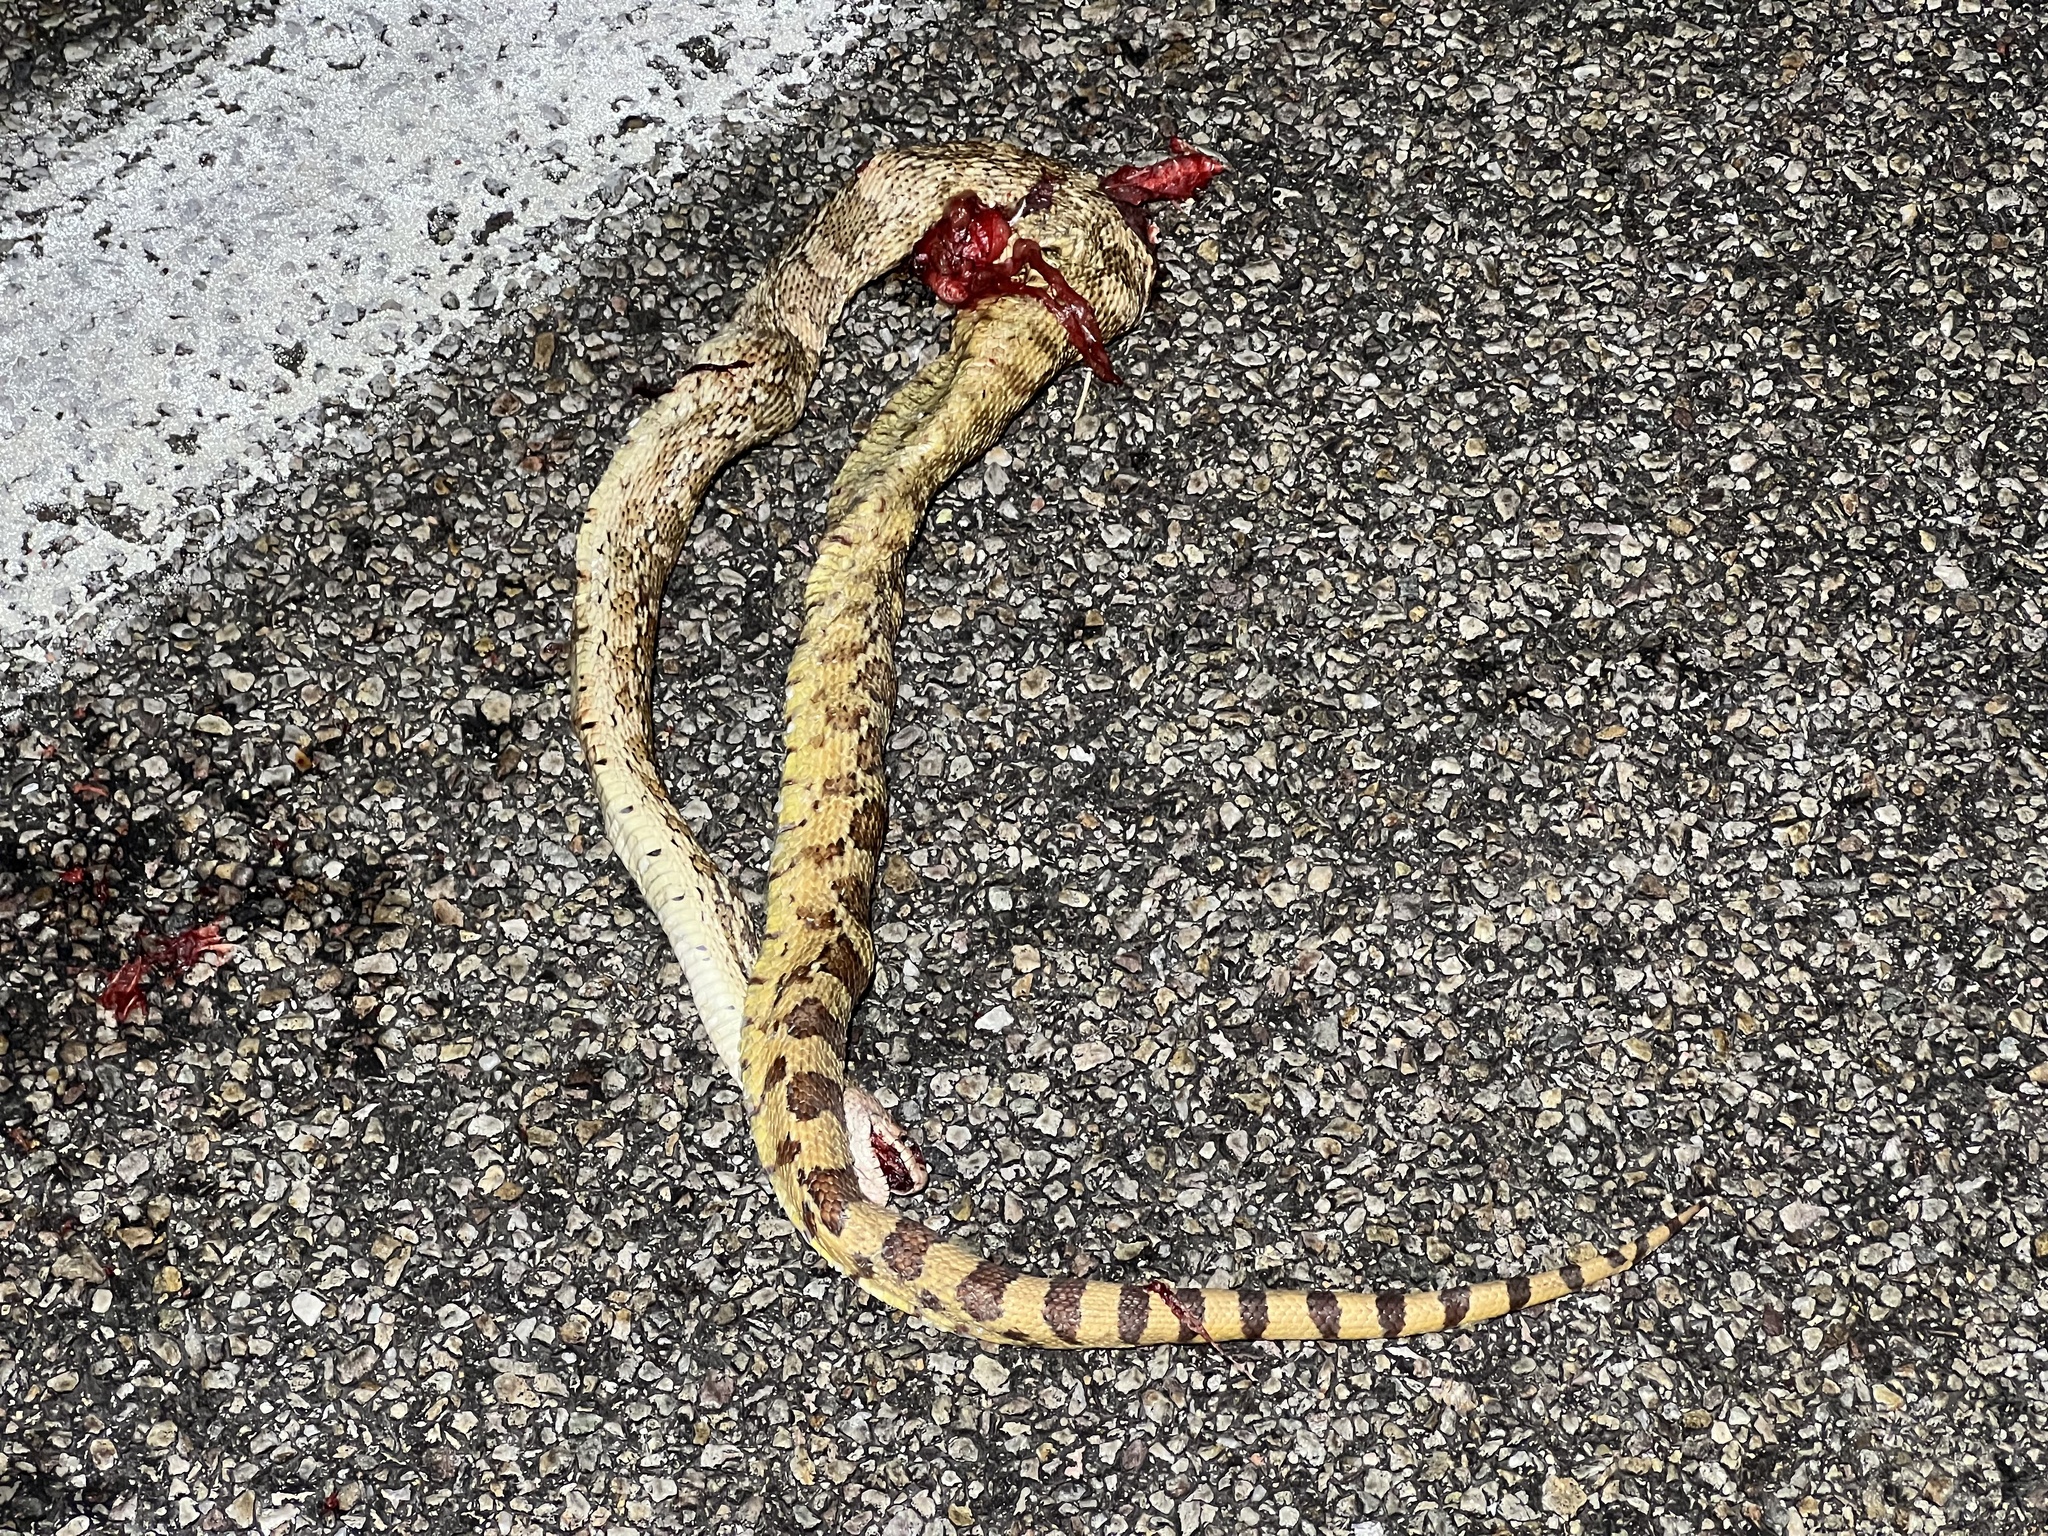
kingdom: Animalia
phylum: Chordata
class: Squamata
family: Colubridae
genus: Pituophis
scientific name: Pituophis catenifer
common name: Gopher snake
